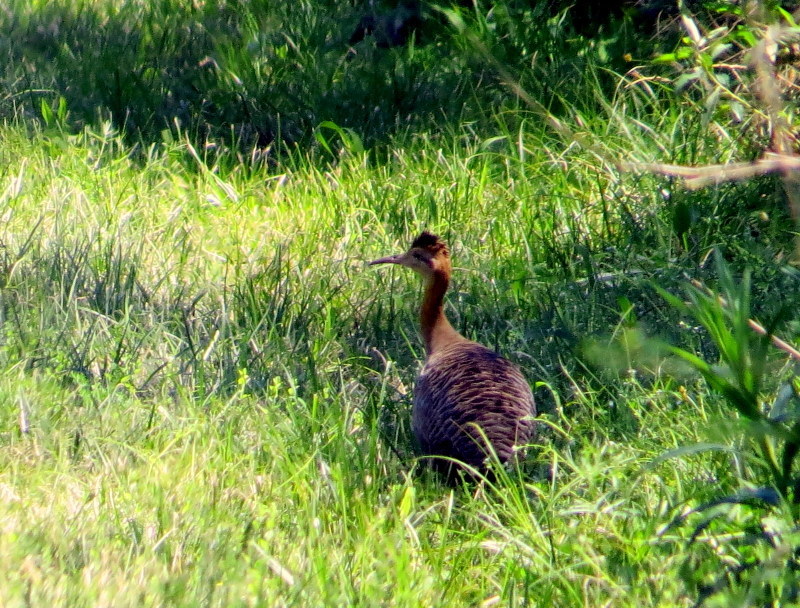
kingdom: Animalia
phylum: Chordata
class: Aves
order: Tinamiformes
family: Tinamidae
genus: Rhynchotus
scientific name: Rhynchotus rufescens
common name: Red-winged tinamou
